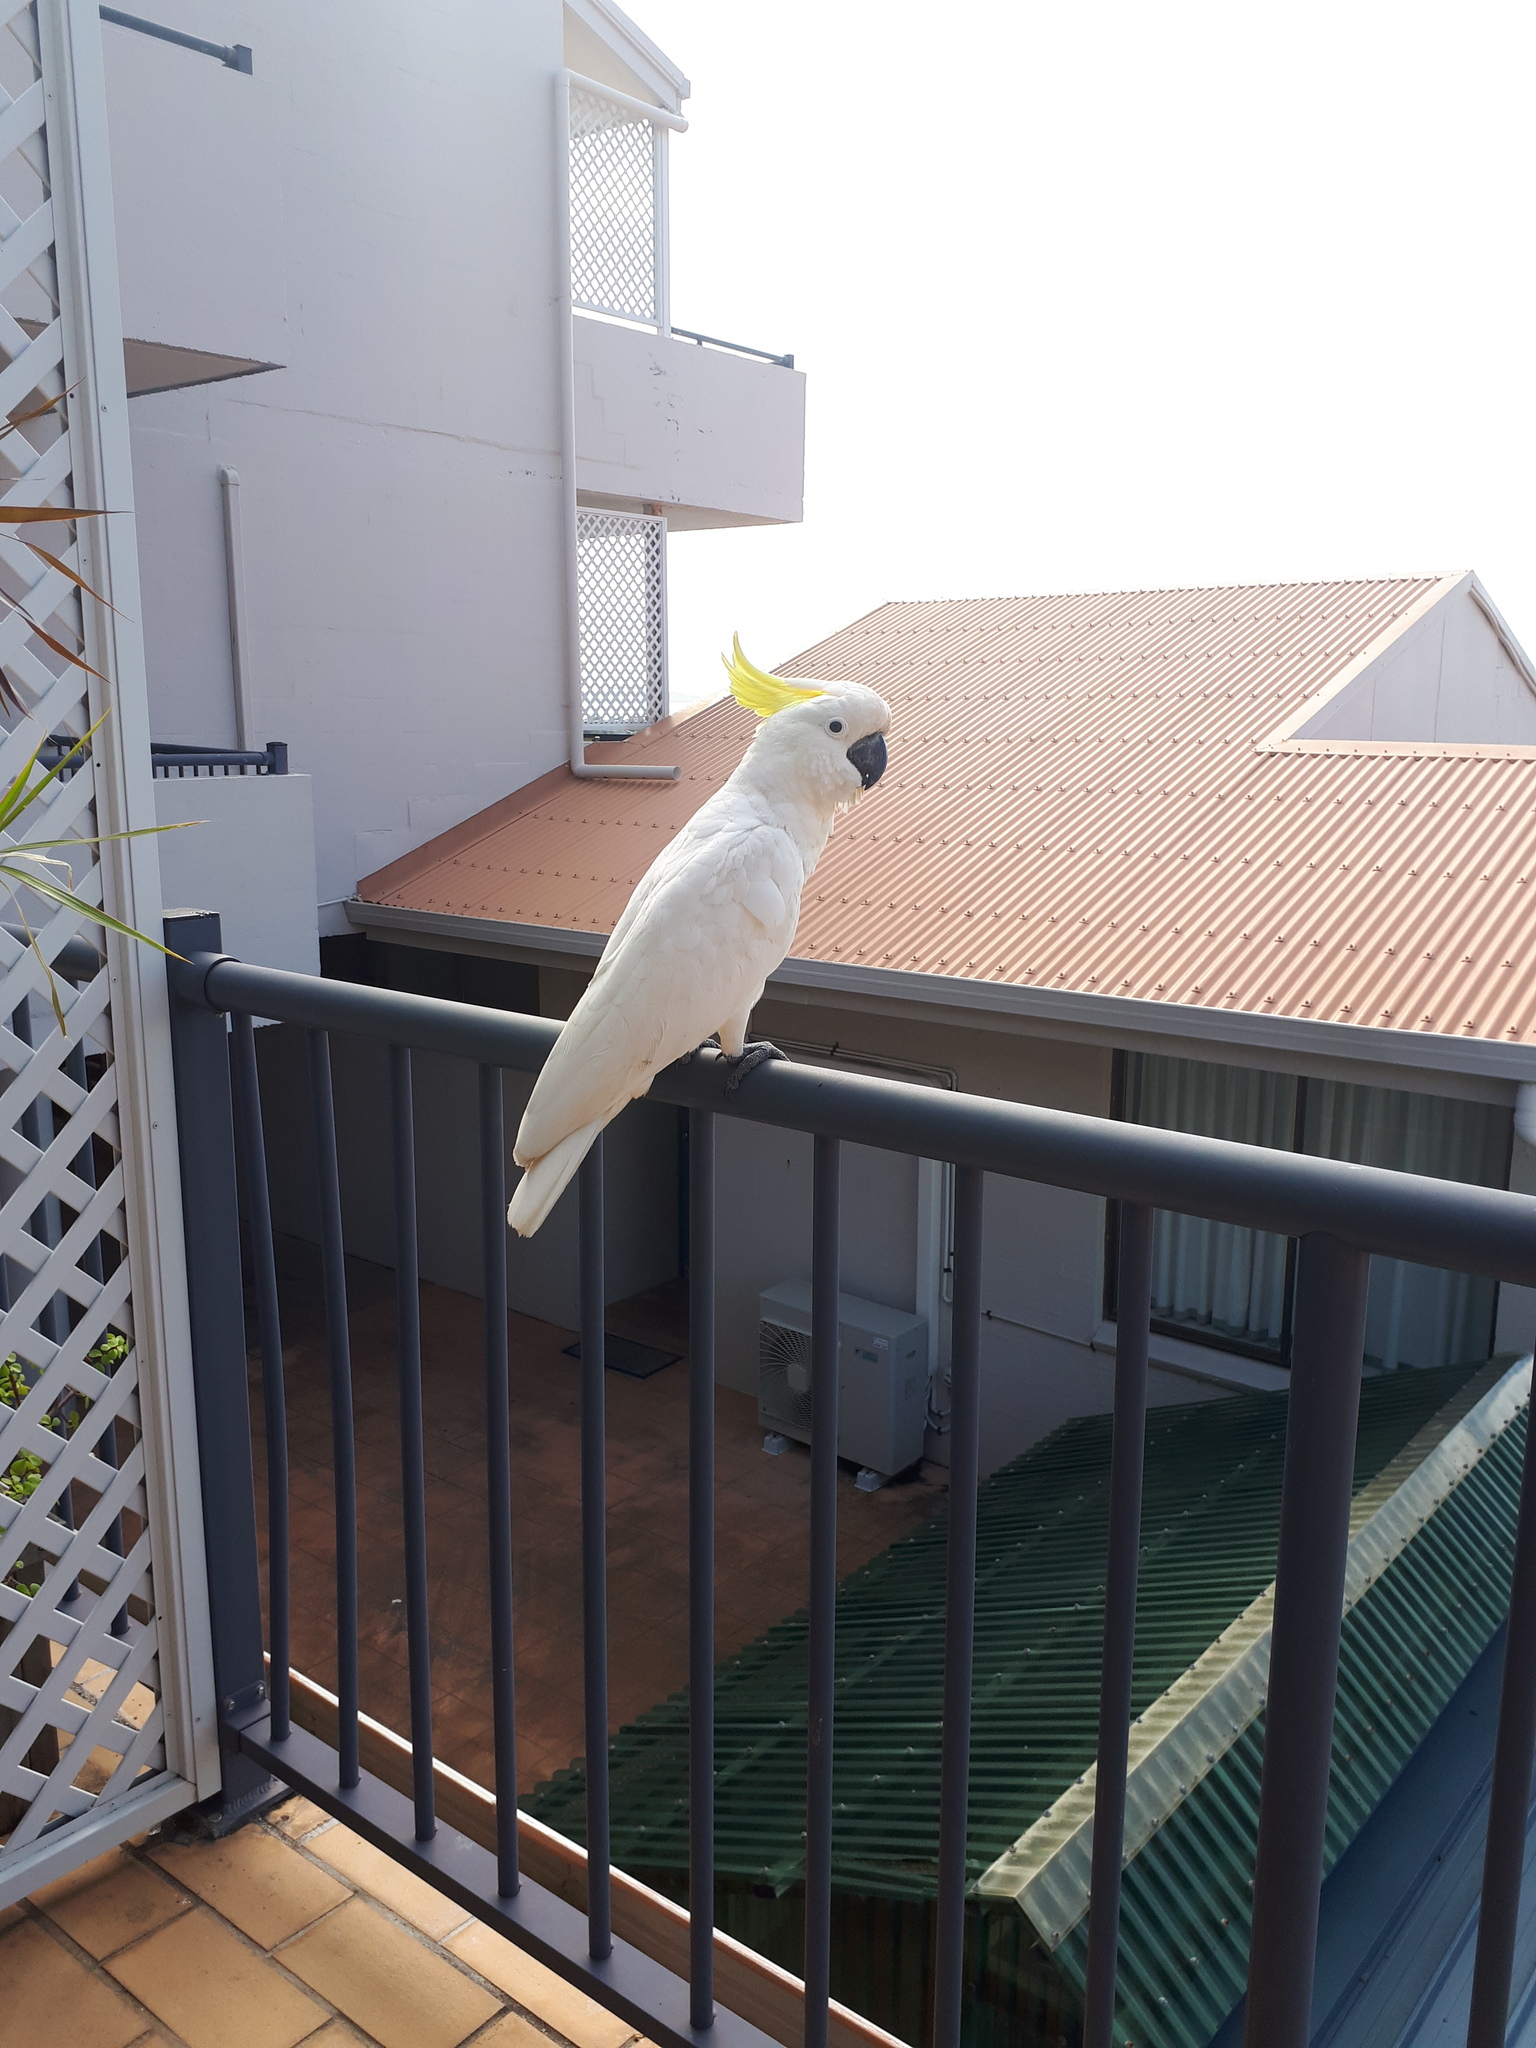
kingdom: Animalia
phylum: Chordata
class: Aves
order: Psittaciformes
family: Psittacidae
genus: Cacatua
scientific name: Cacatua galerita
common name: Sulphur-crested cockatoo
